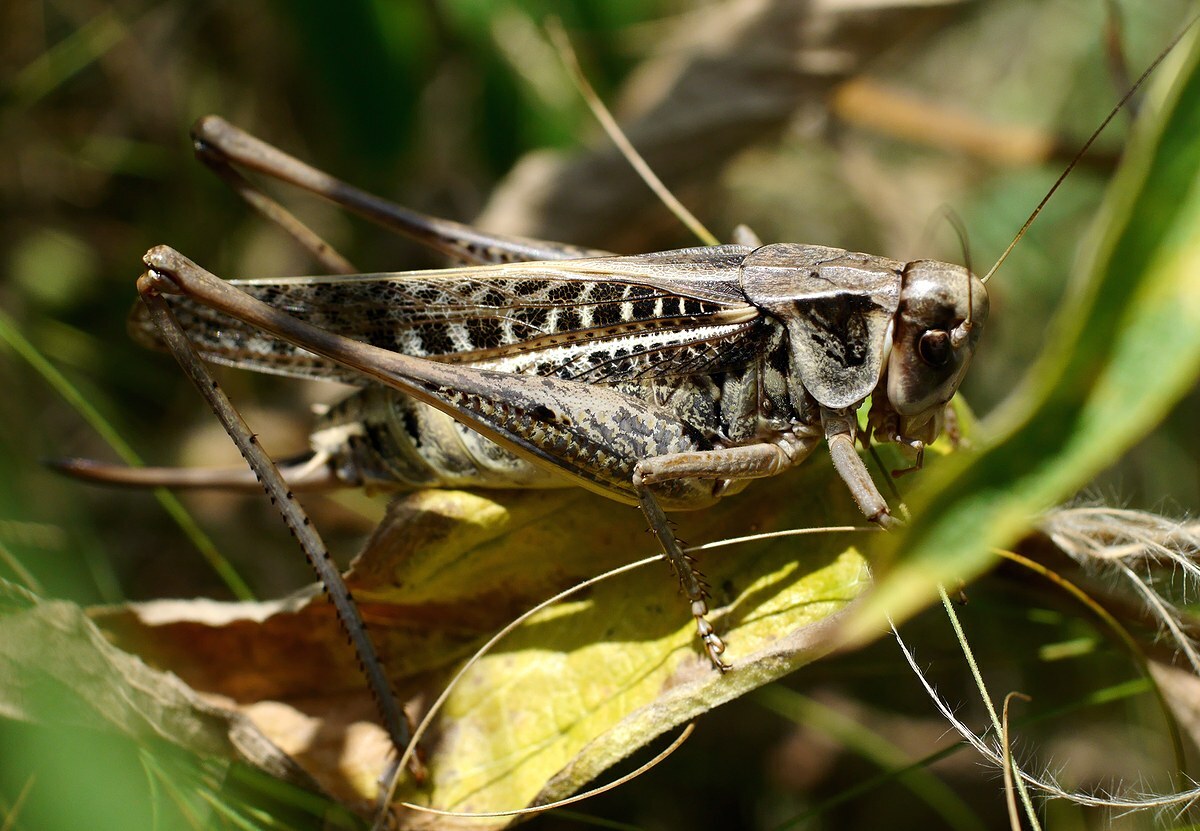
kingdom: Animalia
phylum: Arthropoda
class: Insecta
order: Orthoptera
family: Tettigoniidae
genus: Decticus
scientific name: Decticus verrucivorus
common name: Wart-biter
